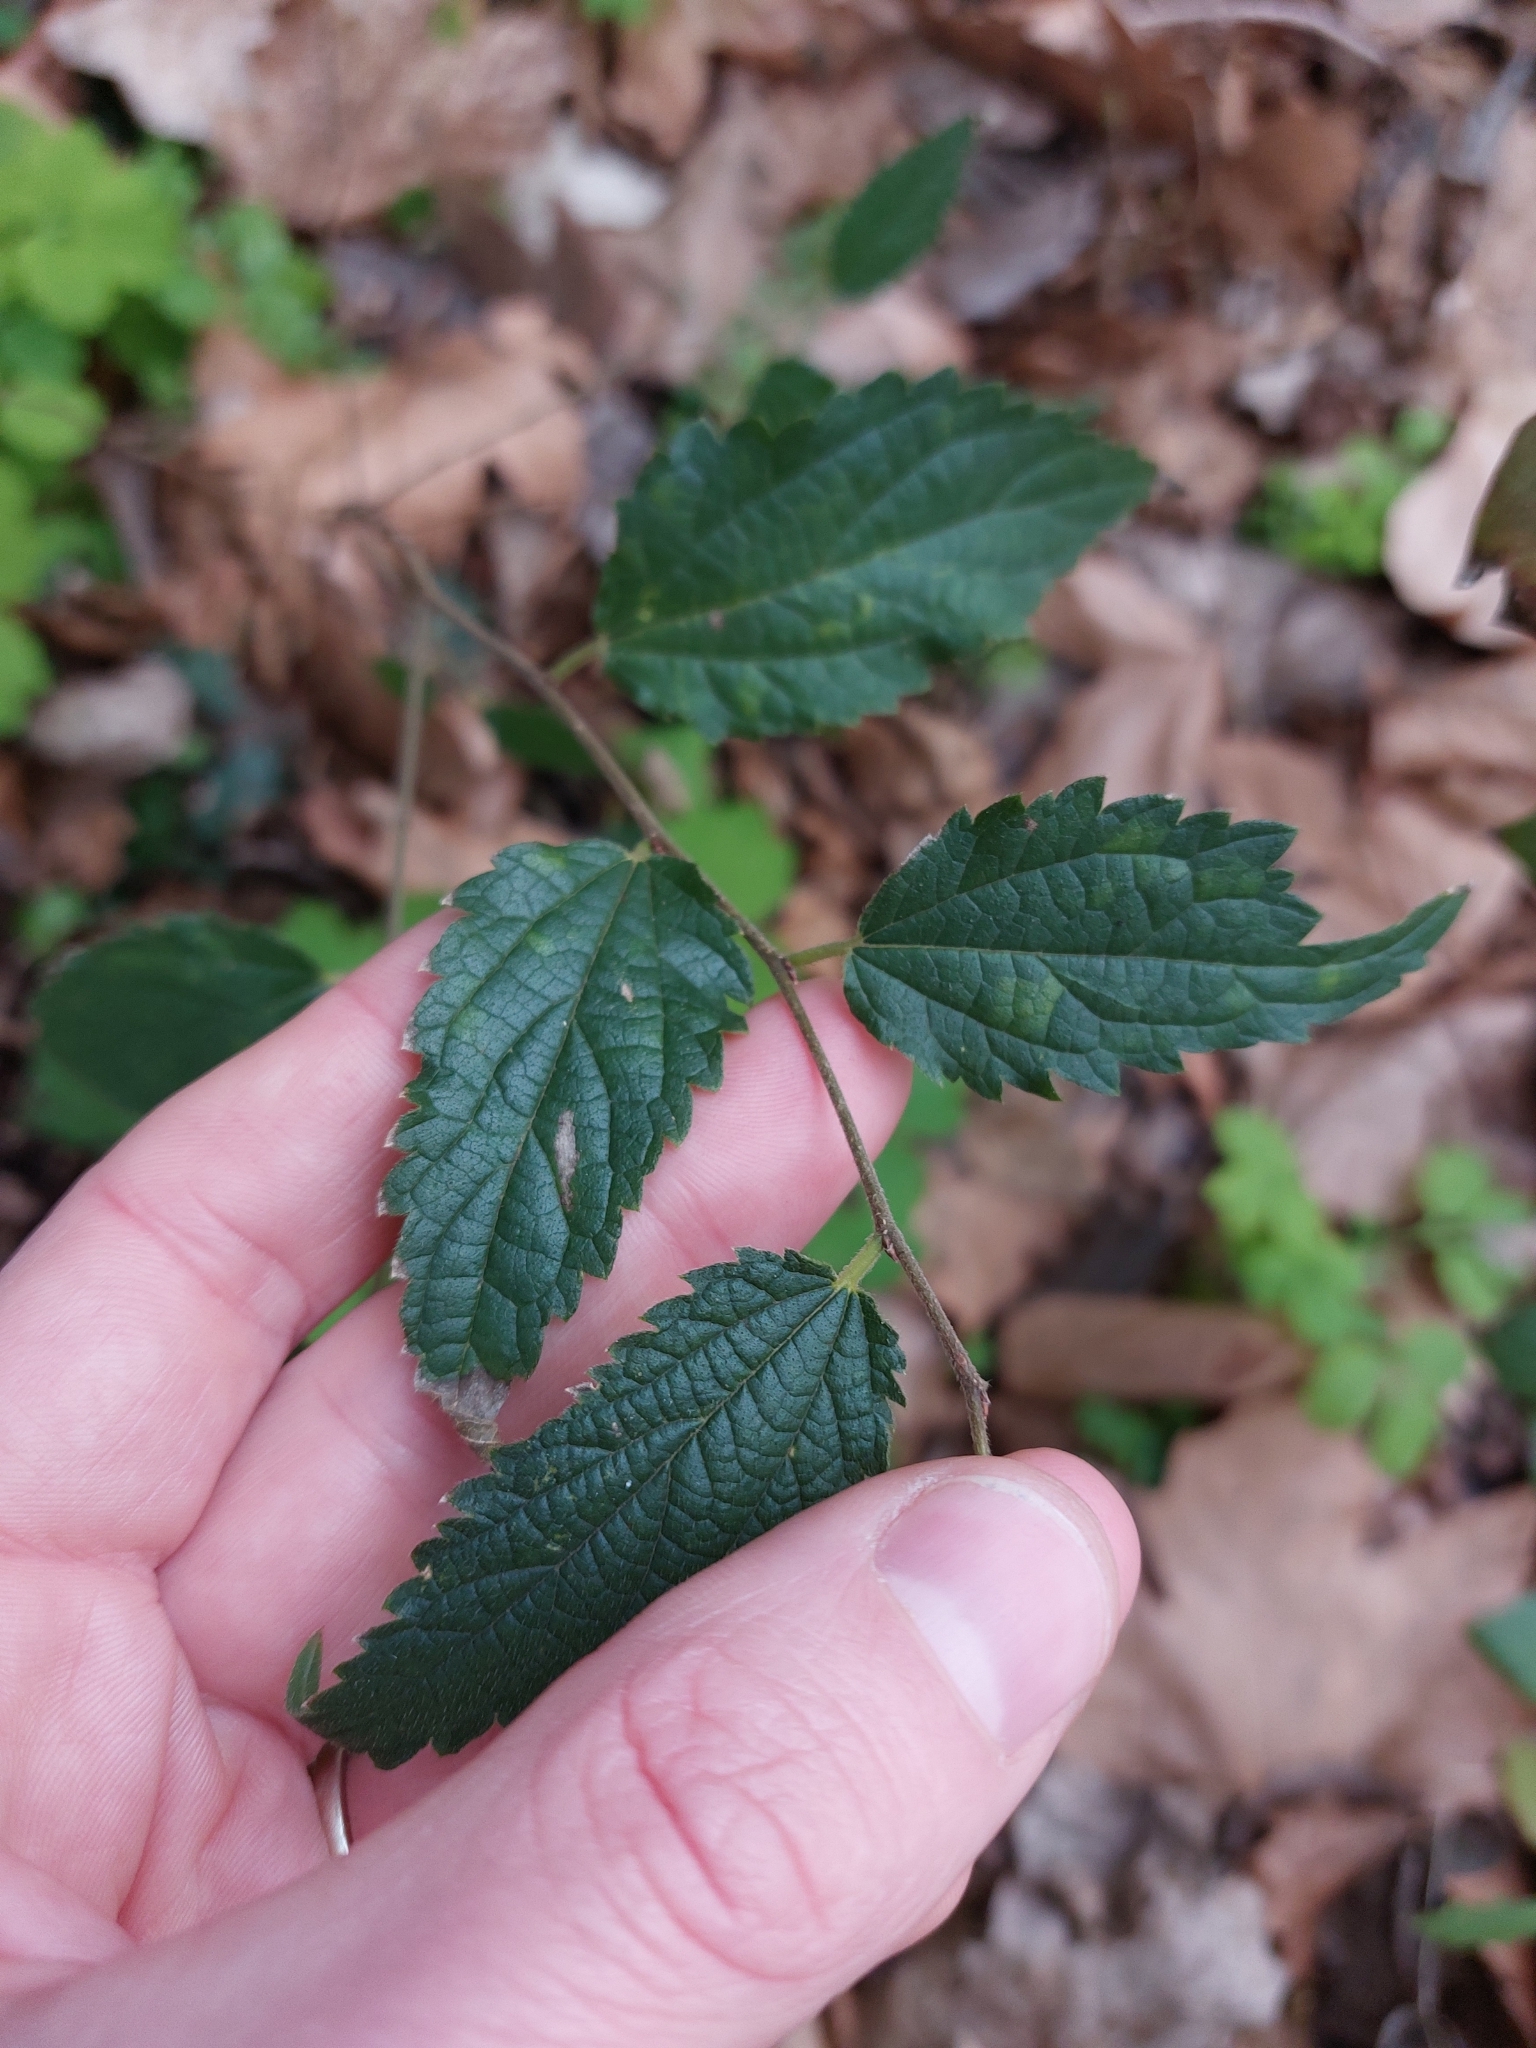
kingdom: Plantae
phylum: Tracheophyta
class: Magnoliopsida
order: Rosales
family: Cannabaceae
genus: Celtis
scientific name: Celtis australis
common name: European hackberry
